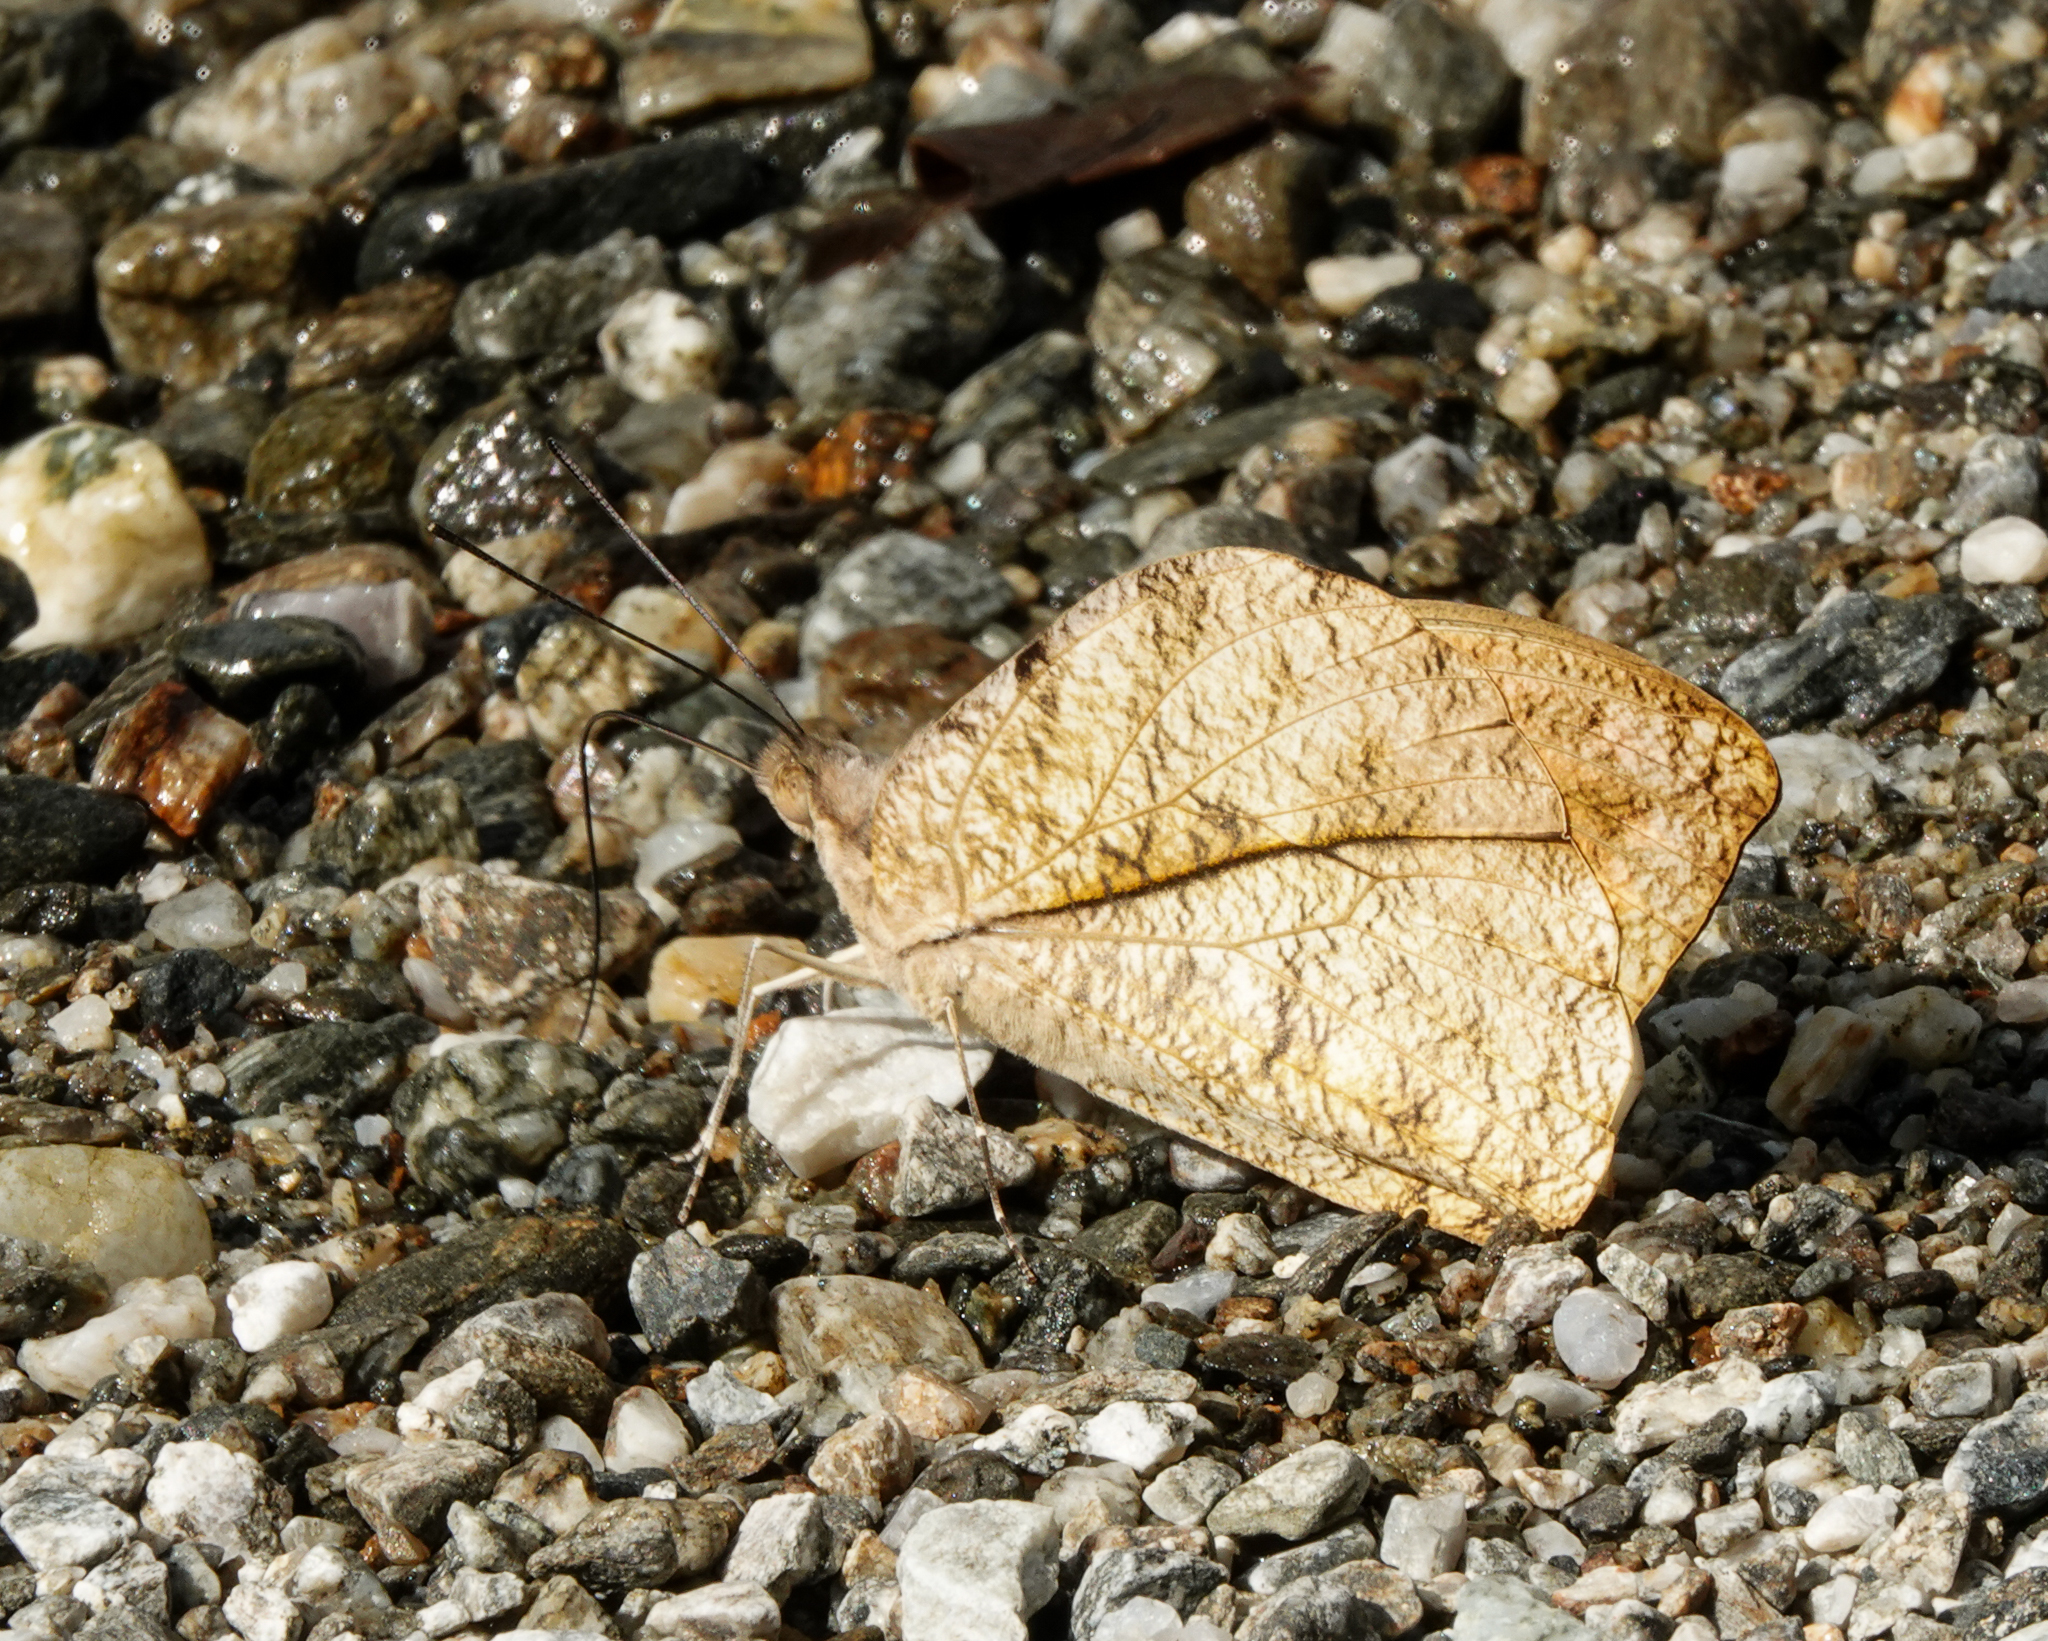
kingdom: Animalia
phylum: Arthropoda
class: Insecta
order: Lepidoptera
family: Pieridae
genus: Hebomoia
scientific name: Hebomoia glaucippe
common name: Great orange tip
